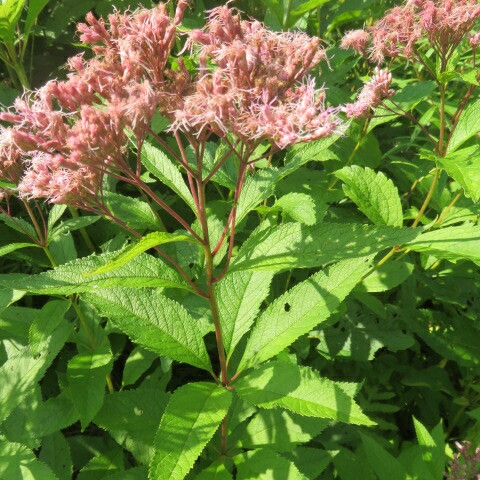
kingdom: Plantae
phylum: Tracheophyta
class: Magnoliopsida
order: Asterales
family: Asteraceae
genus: Eutrochium
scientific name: Eutrochium maculatum
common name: Spotted joe pye weed
